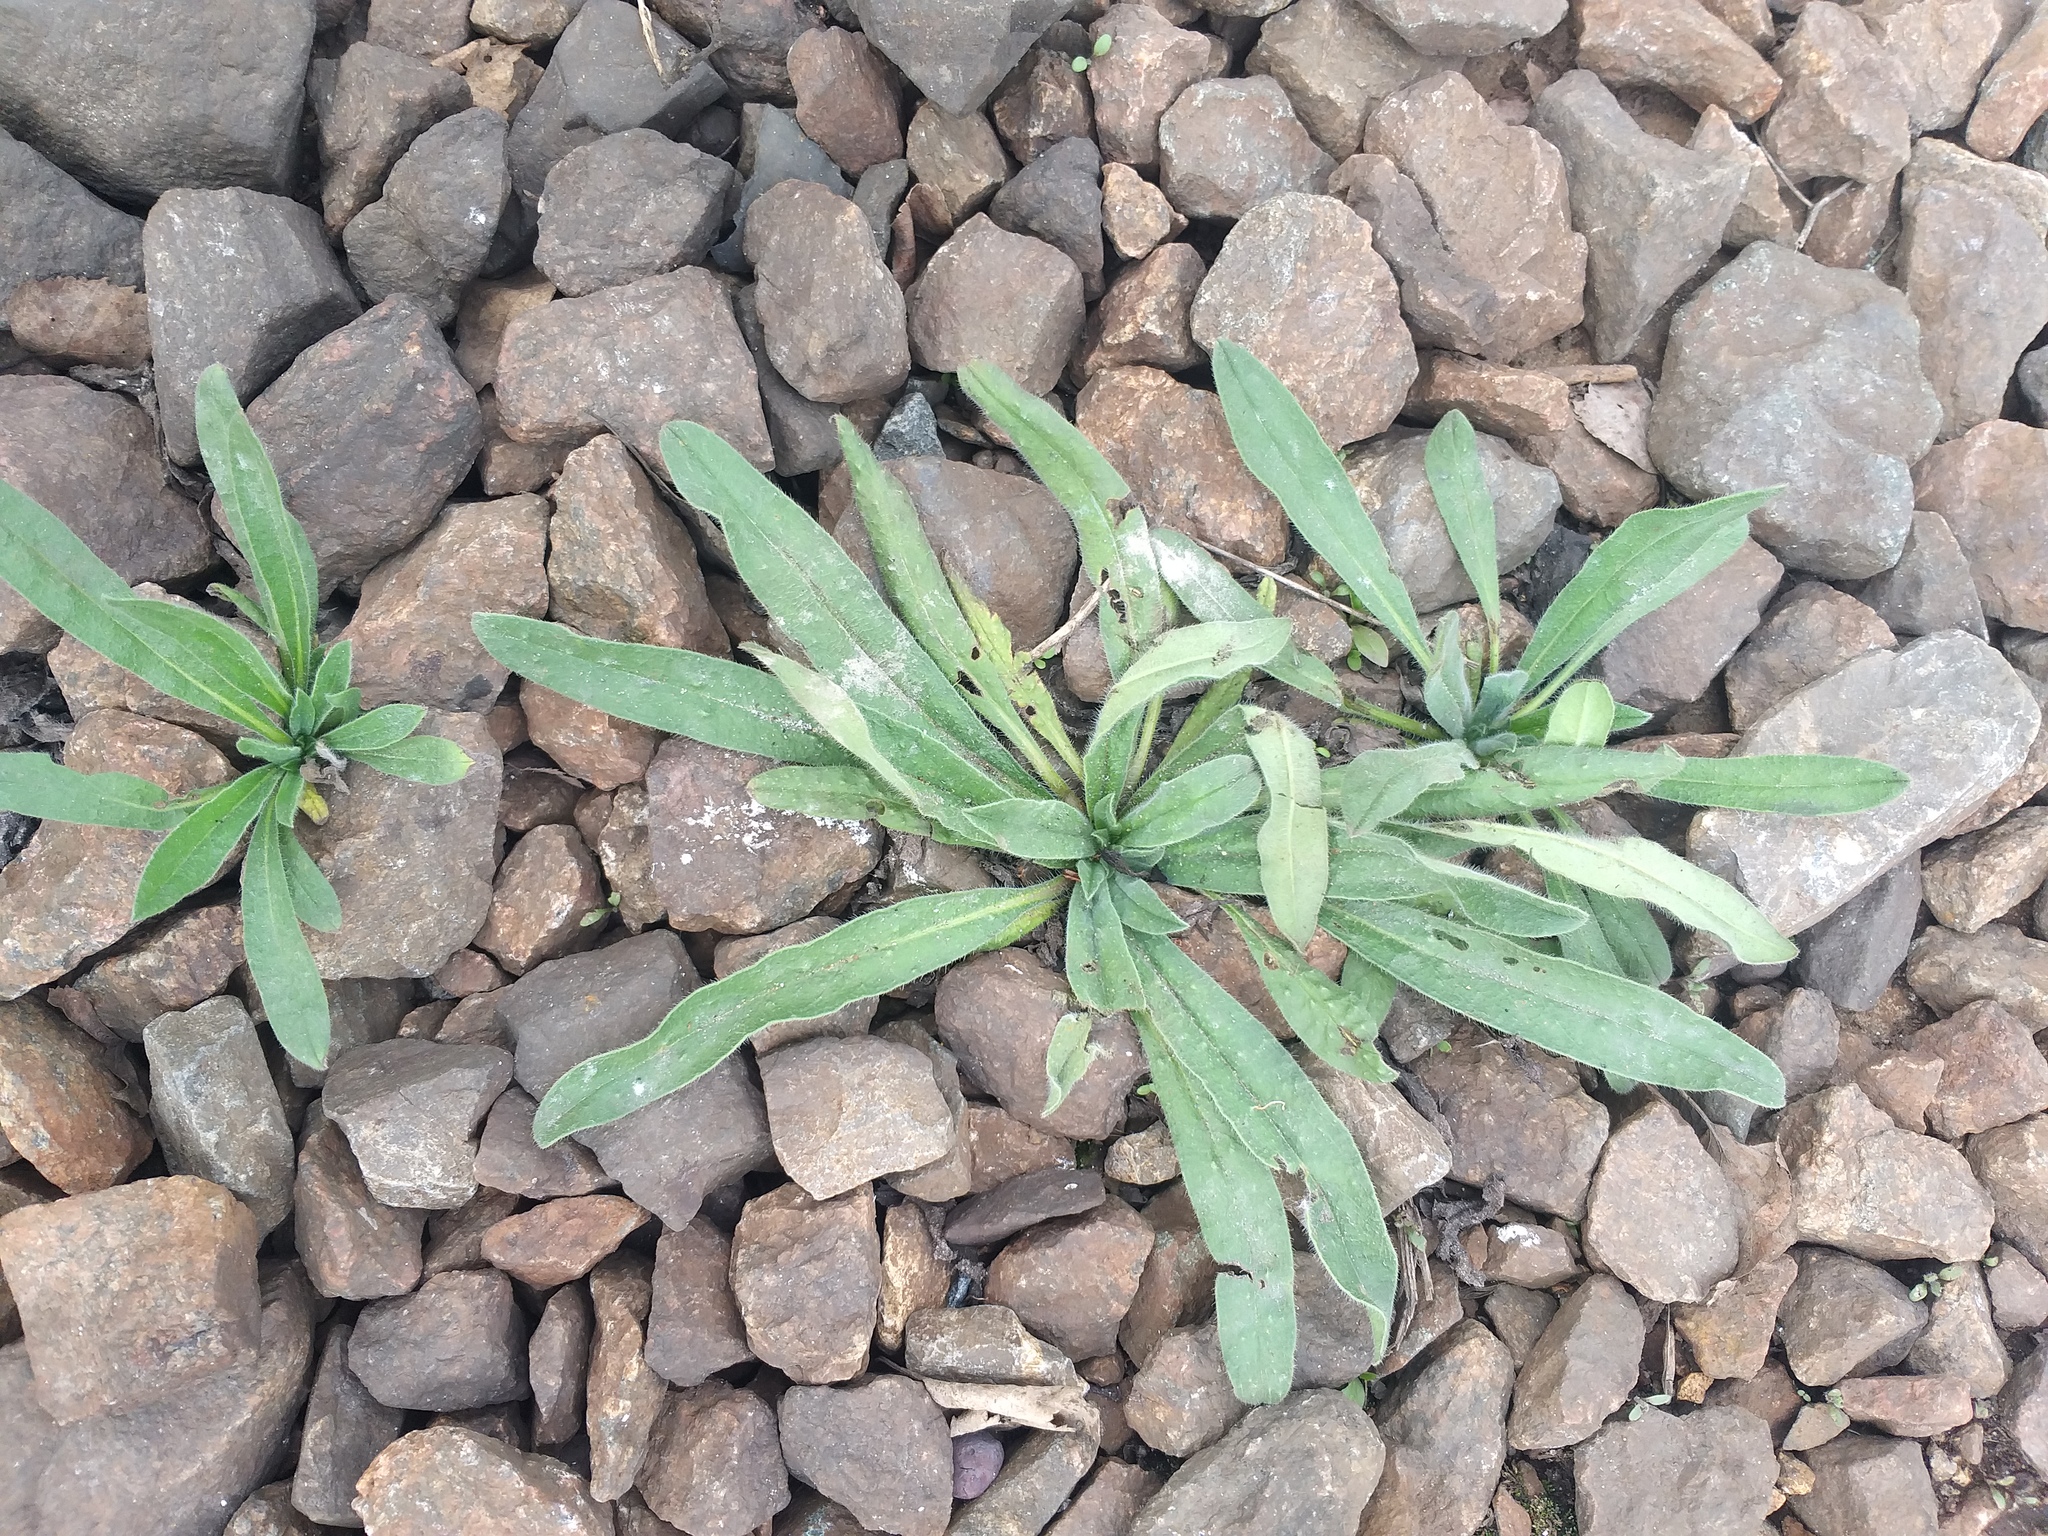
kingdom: Plantae
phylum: Tracheophyta
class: Magnoliopsida
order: Boraginales
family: Boraginaceae
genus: Echium
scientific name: Echium vulgare
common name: Common viper's bugloss
